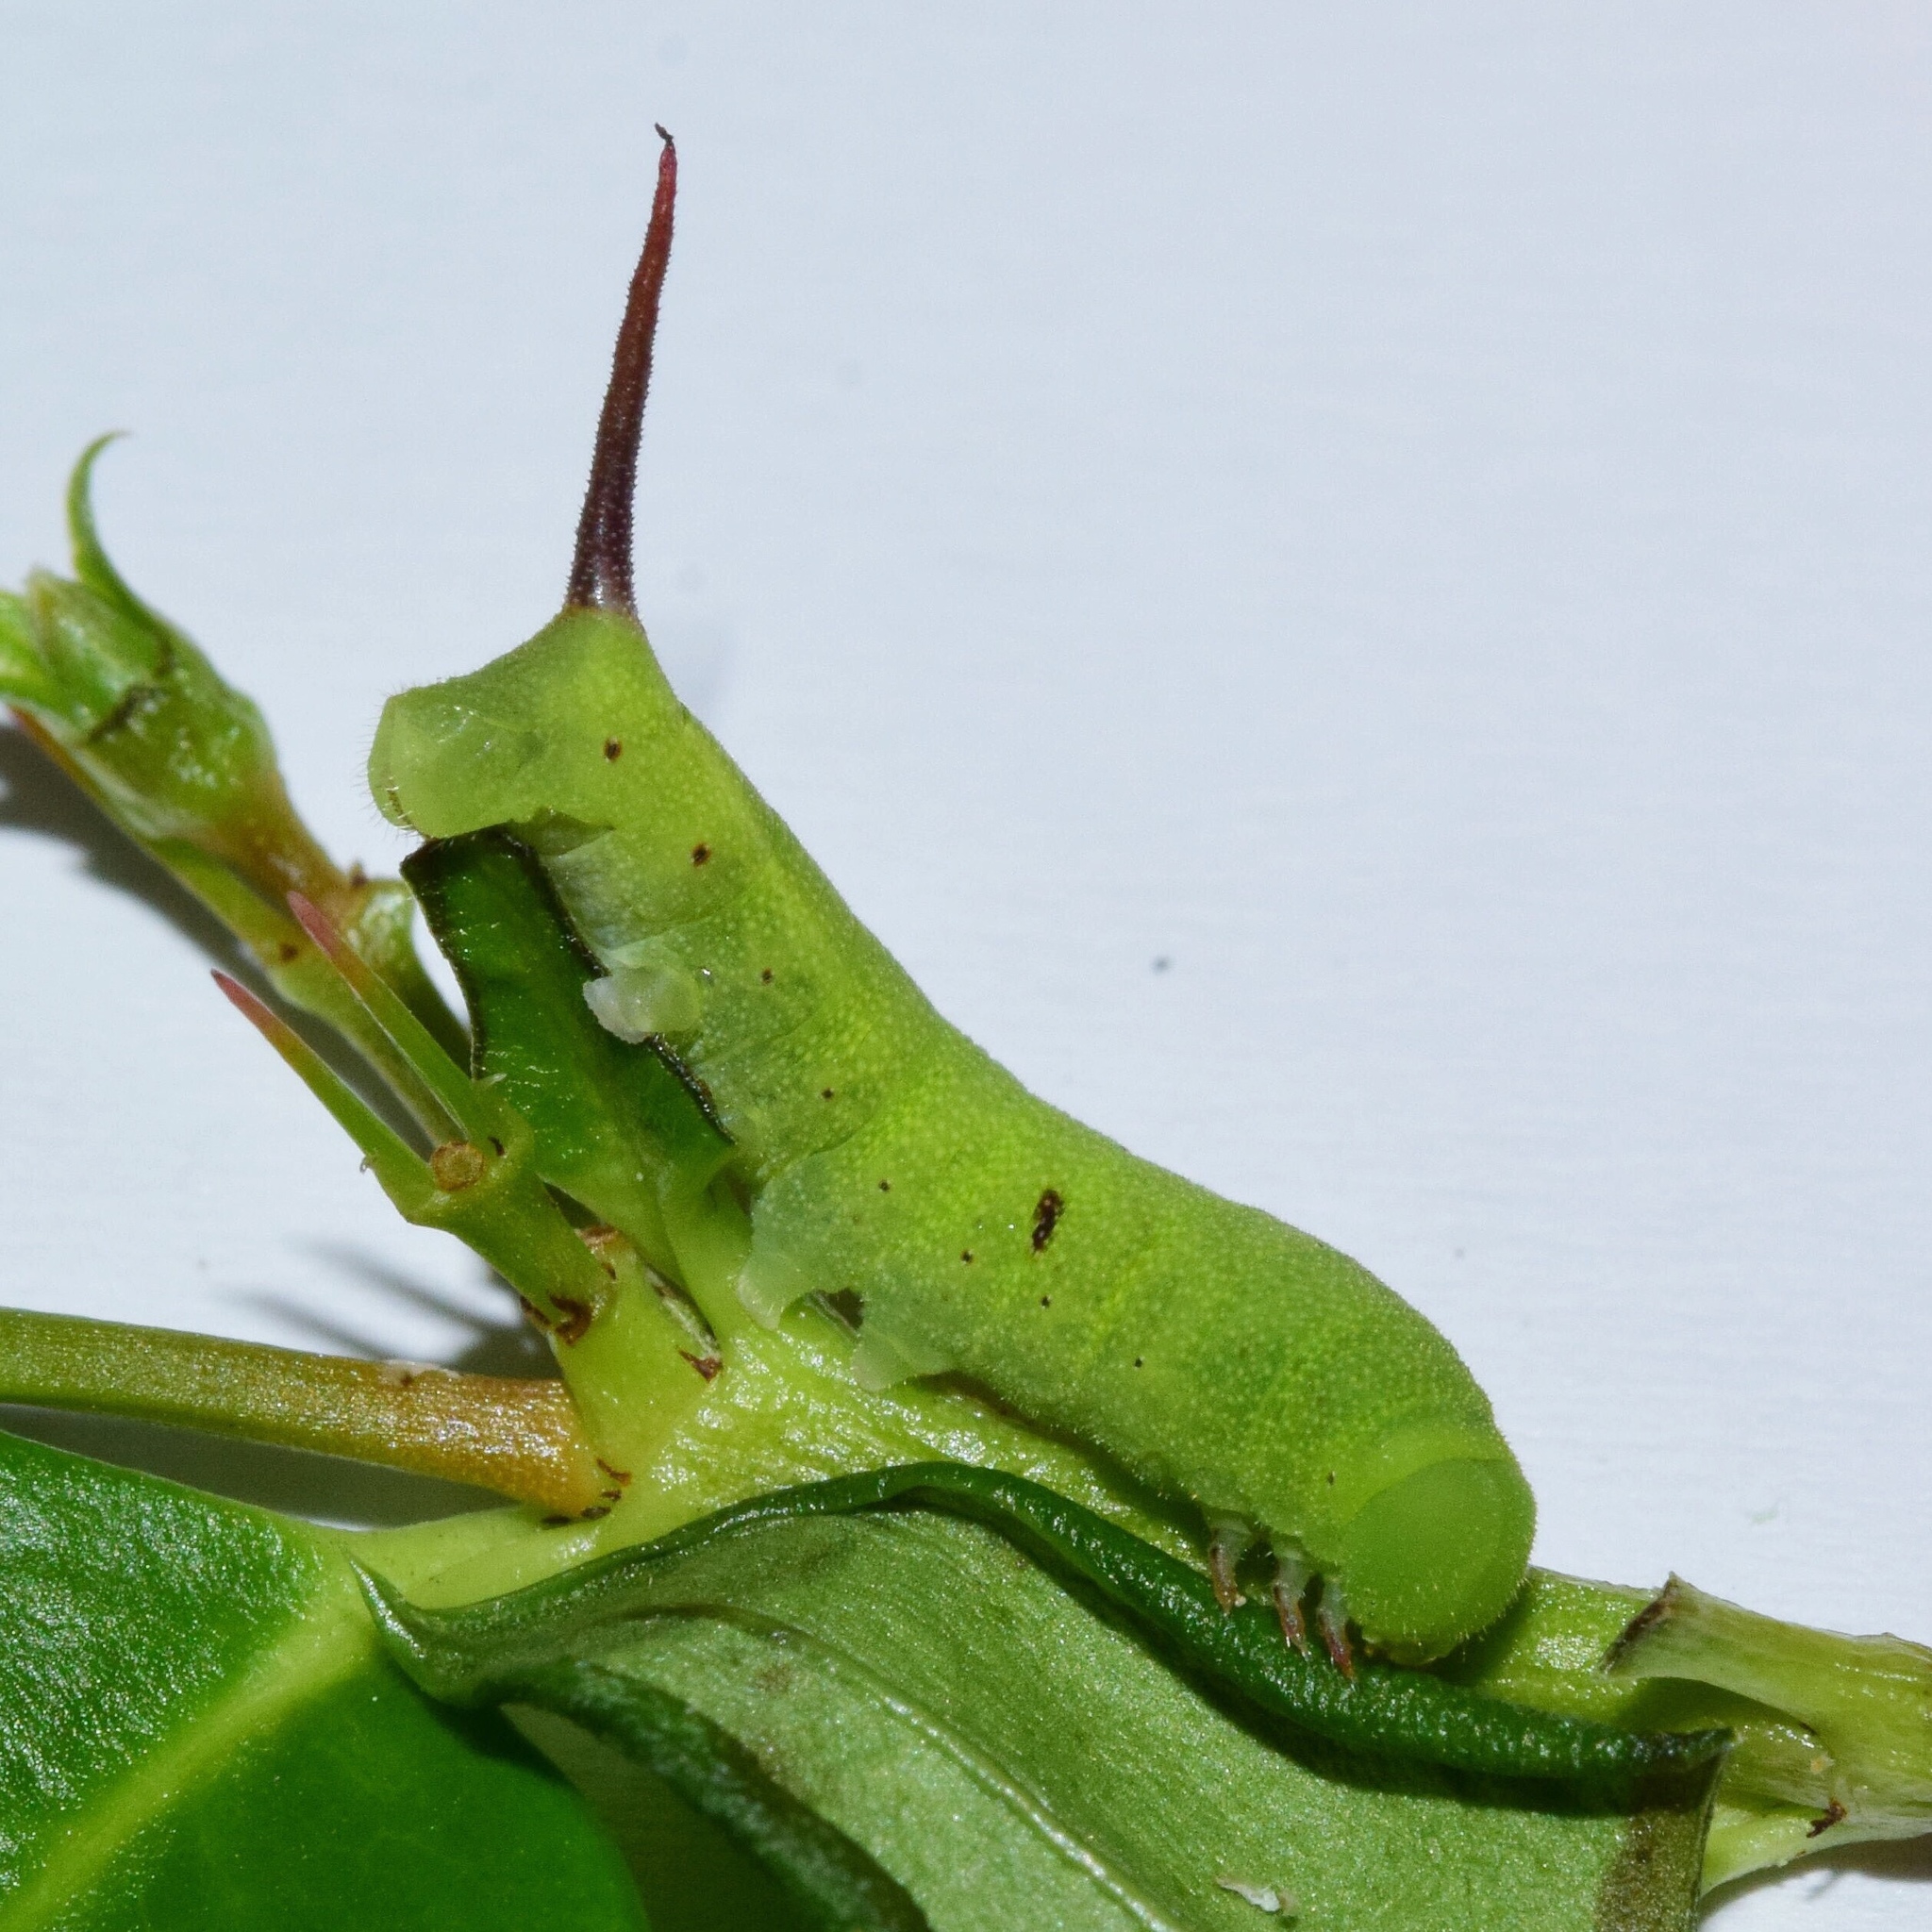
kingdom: Animalia
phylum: Arthropoda
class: Insecta
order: Lepidoptera
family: Sphingidae
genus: Nephele
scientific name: Nephele vau
